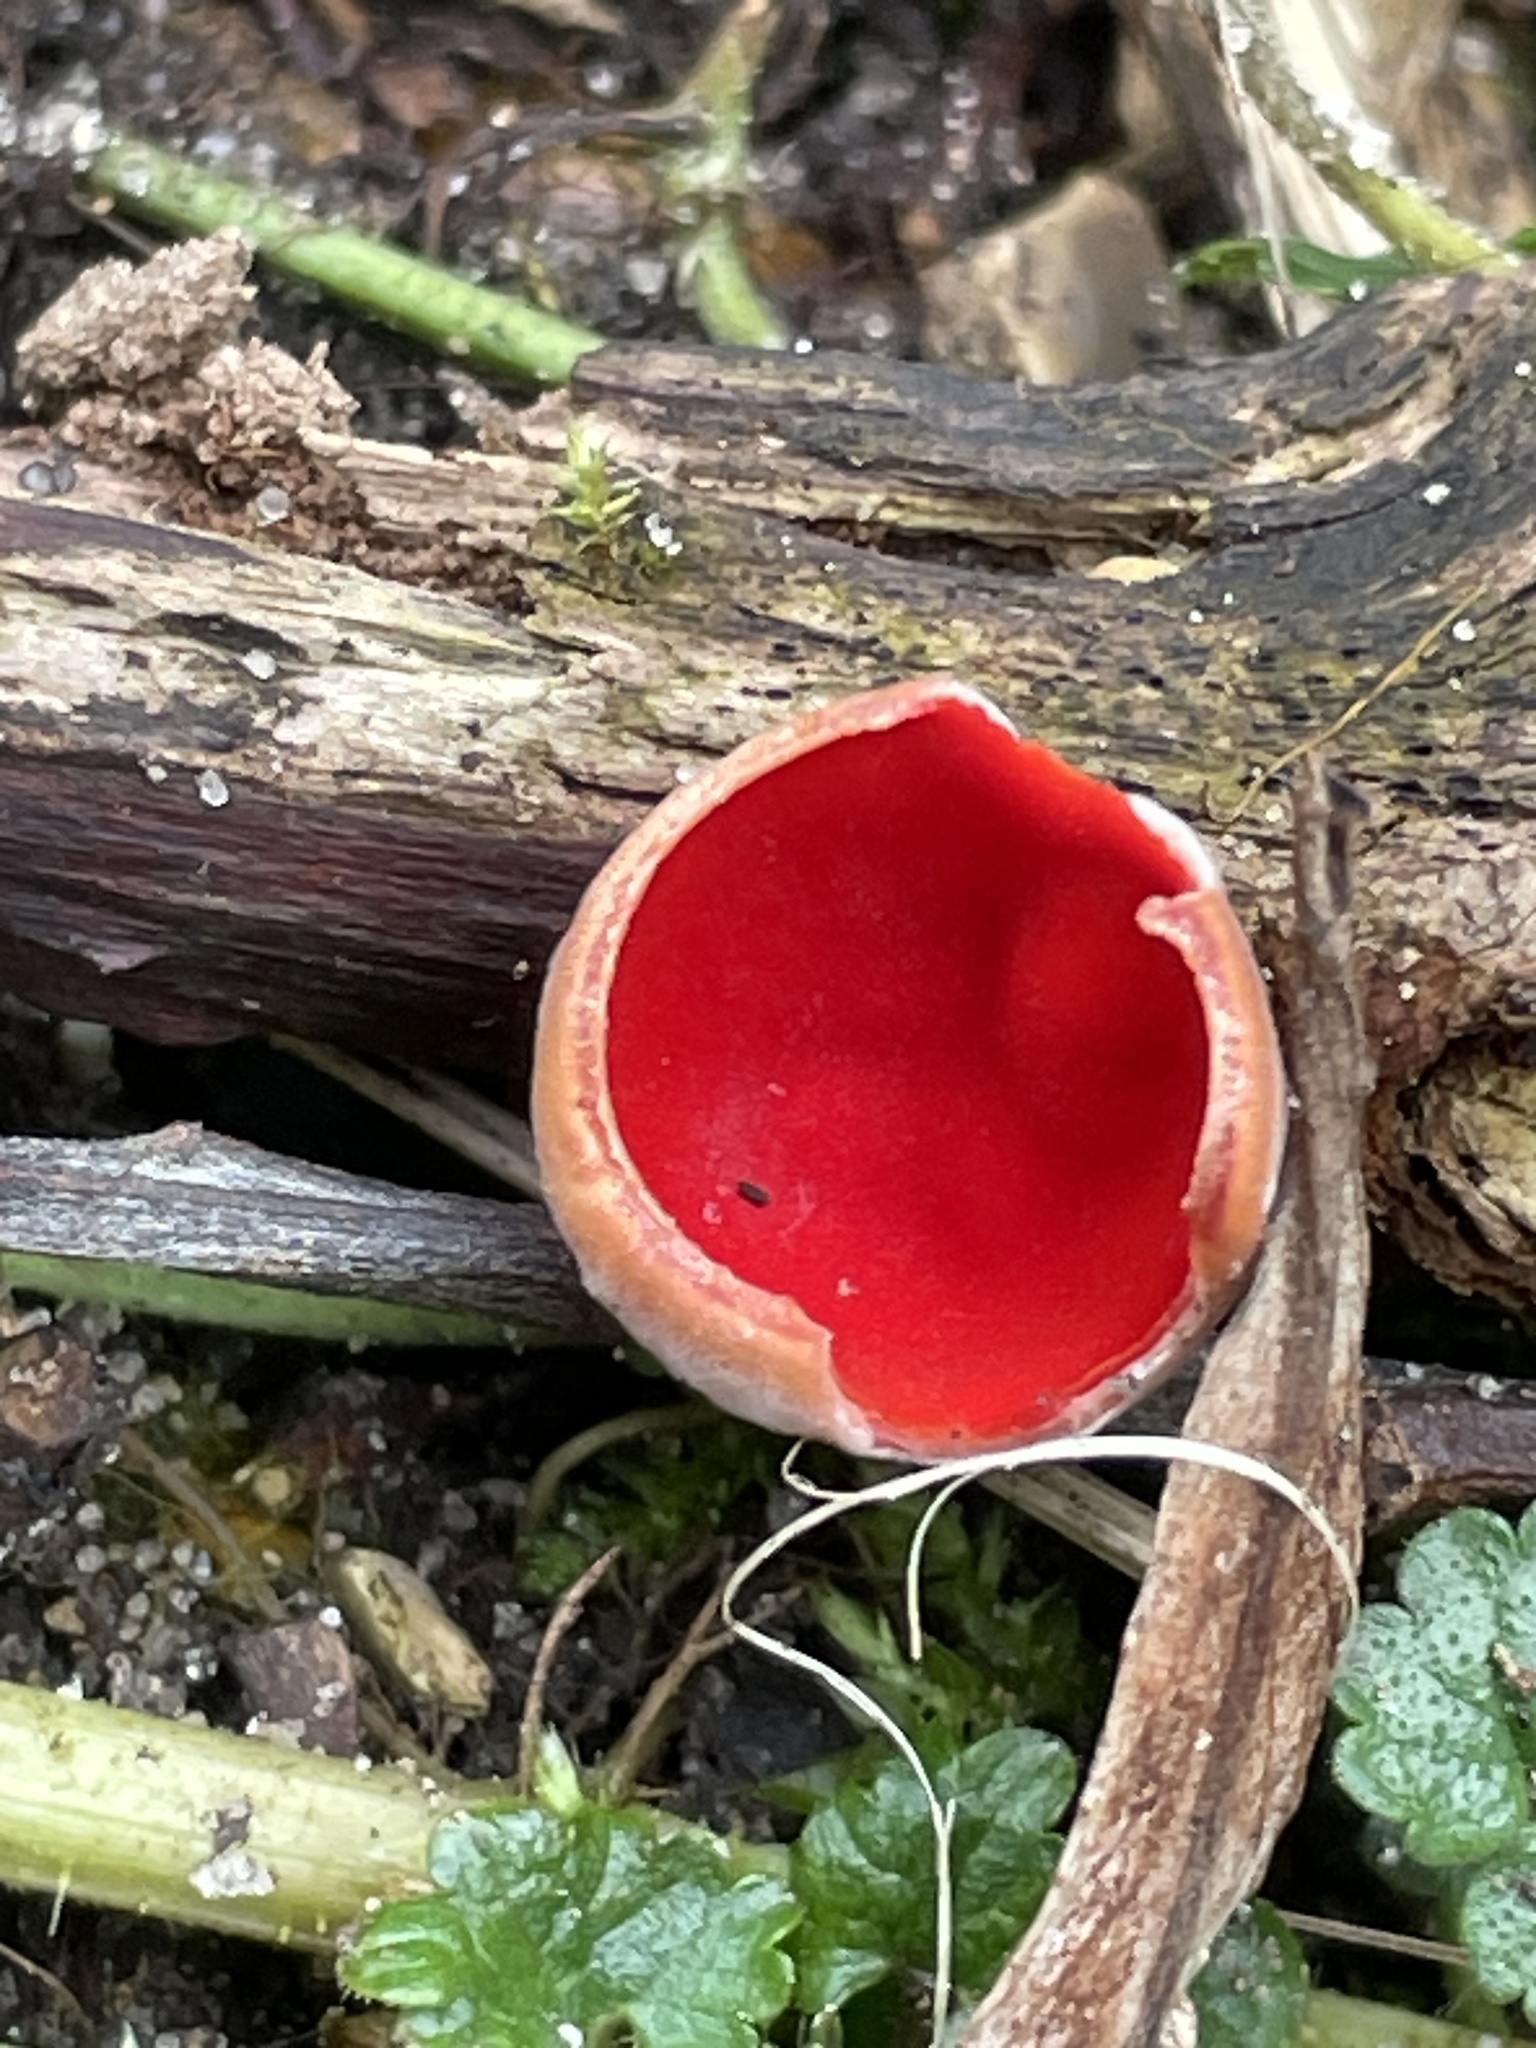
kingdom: Fungi
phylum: Ascomycota
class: Pezizomycetes
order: Pezizales
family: Sarcoscyphaceae
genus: Sarcoscypha
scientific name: Sarcoscypha
